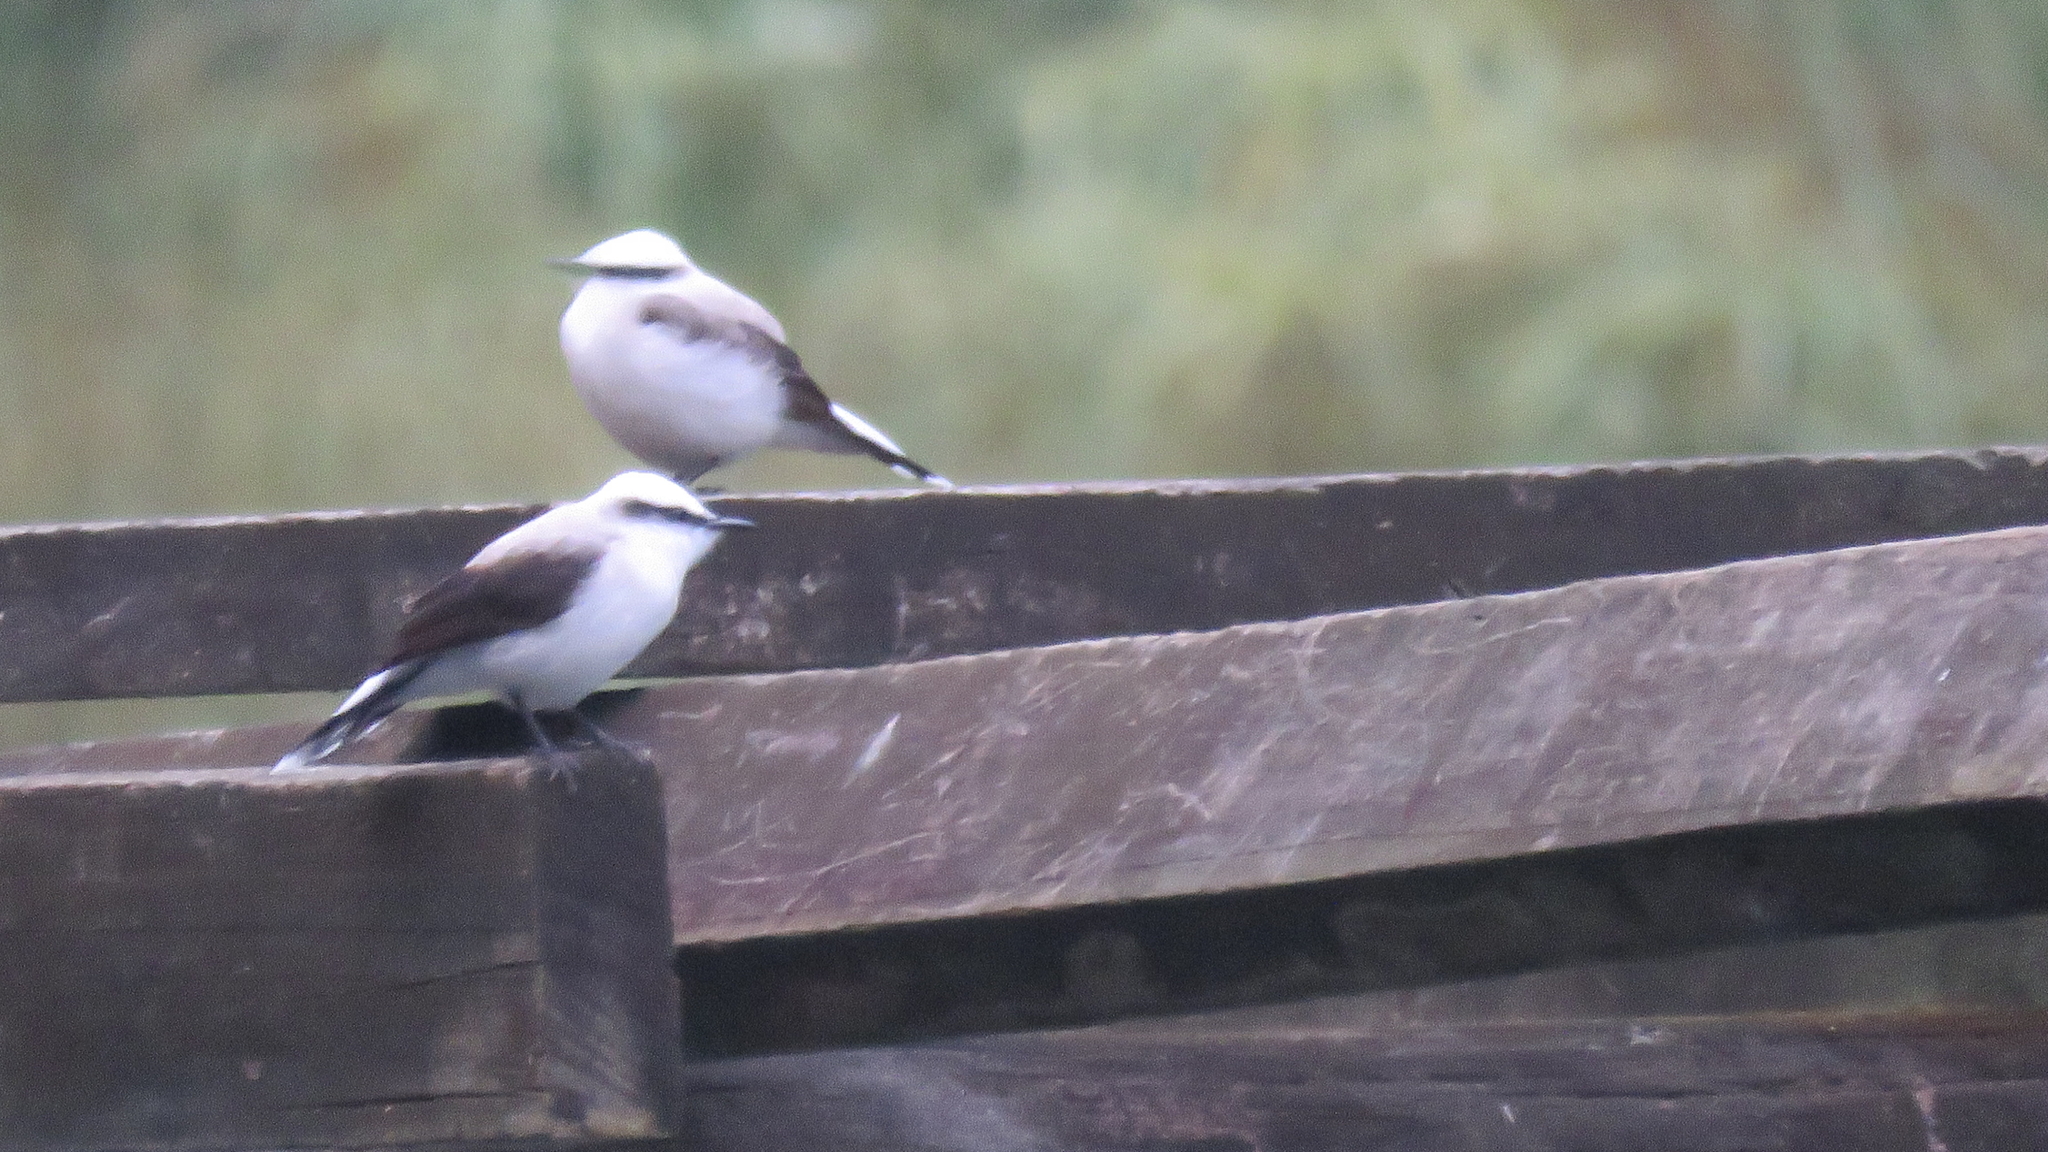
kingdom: Animalia
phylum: Chordata
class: Aves
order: Passeriformes
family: Tyrannidae
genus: Fluvicola
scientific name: Fluvicola nengeta
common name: Masked water tyrant
